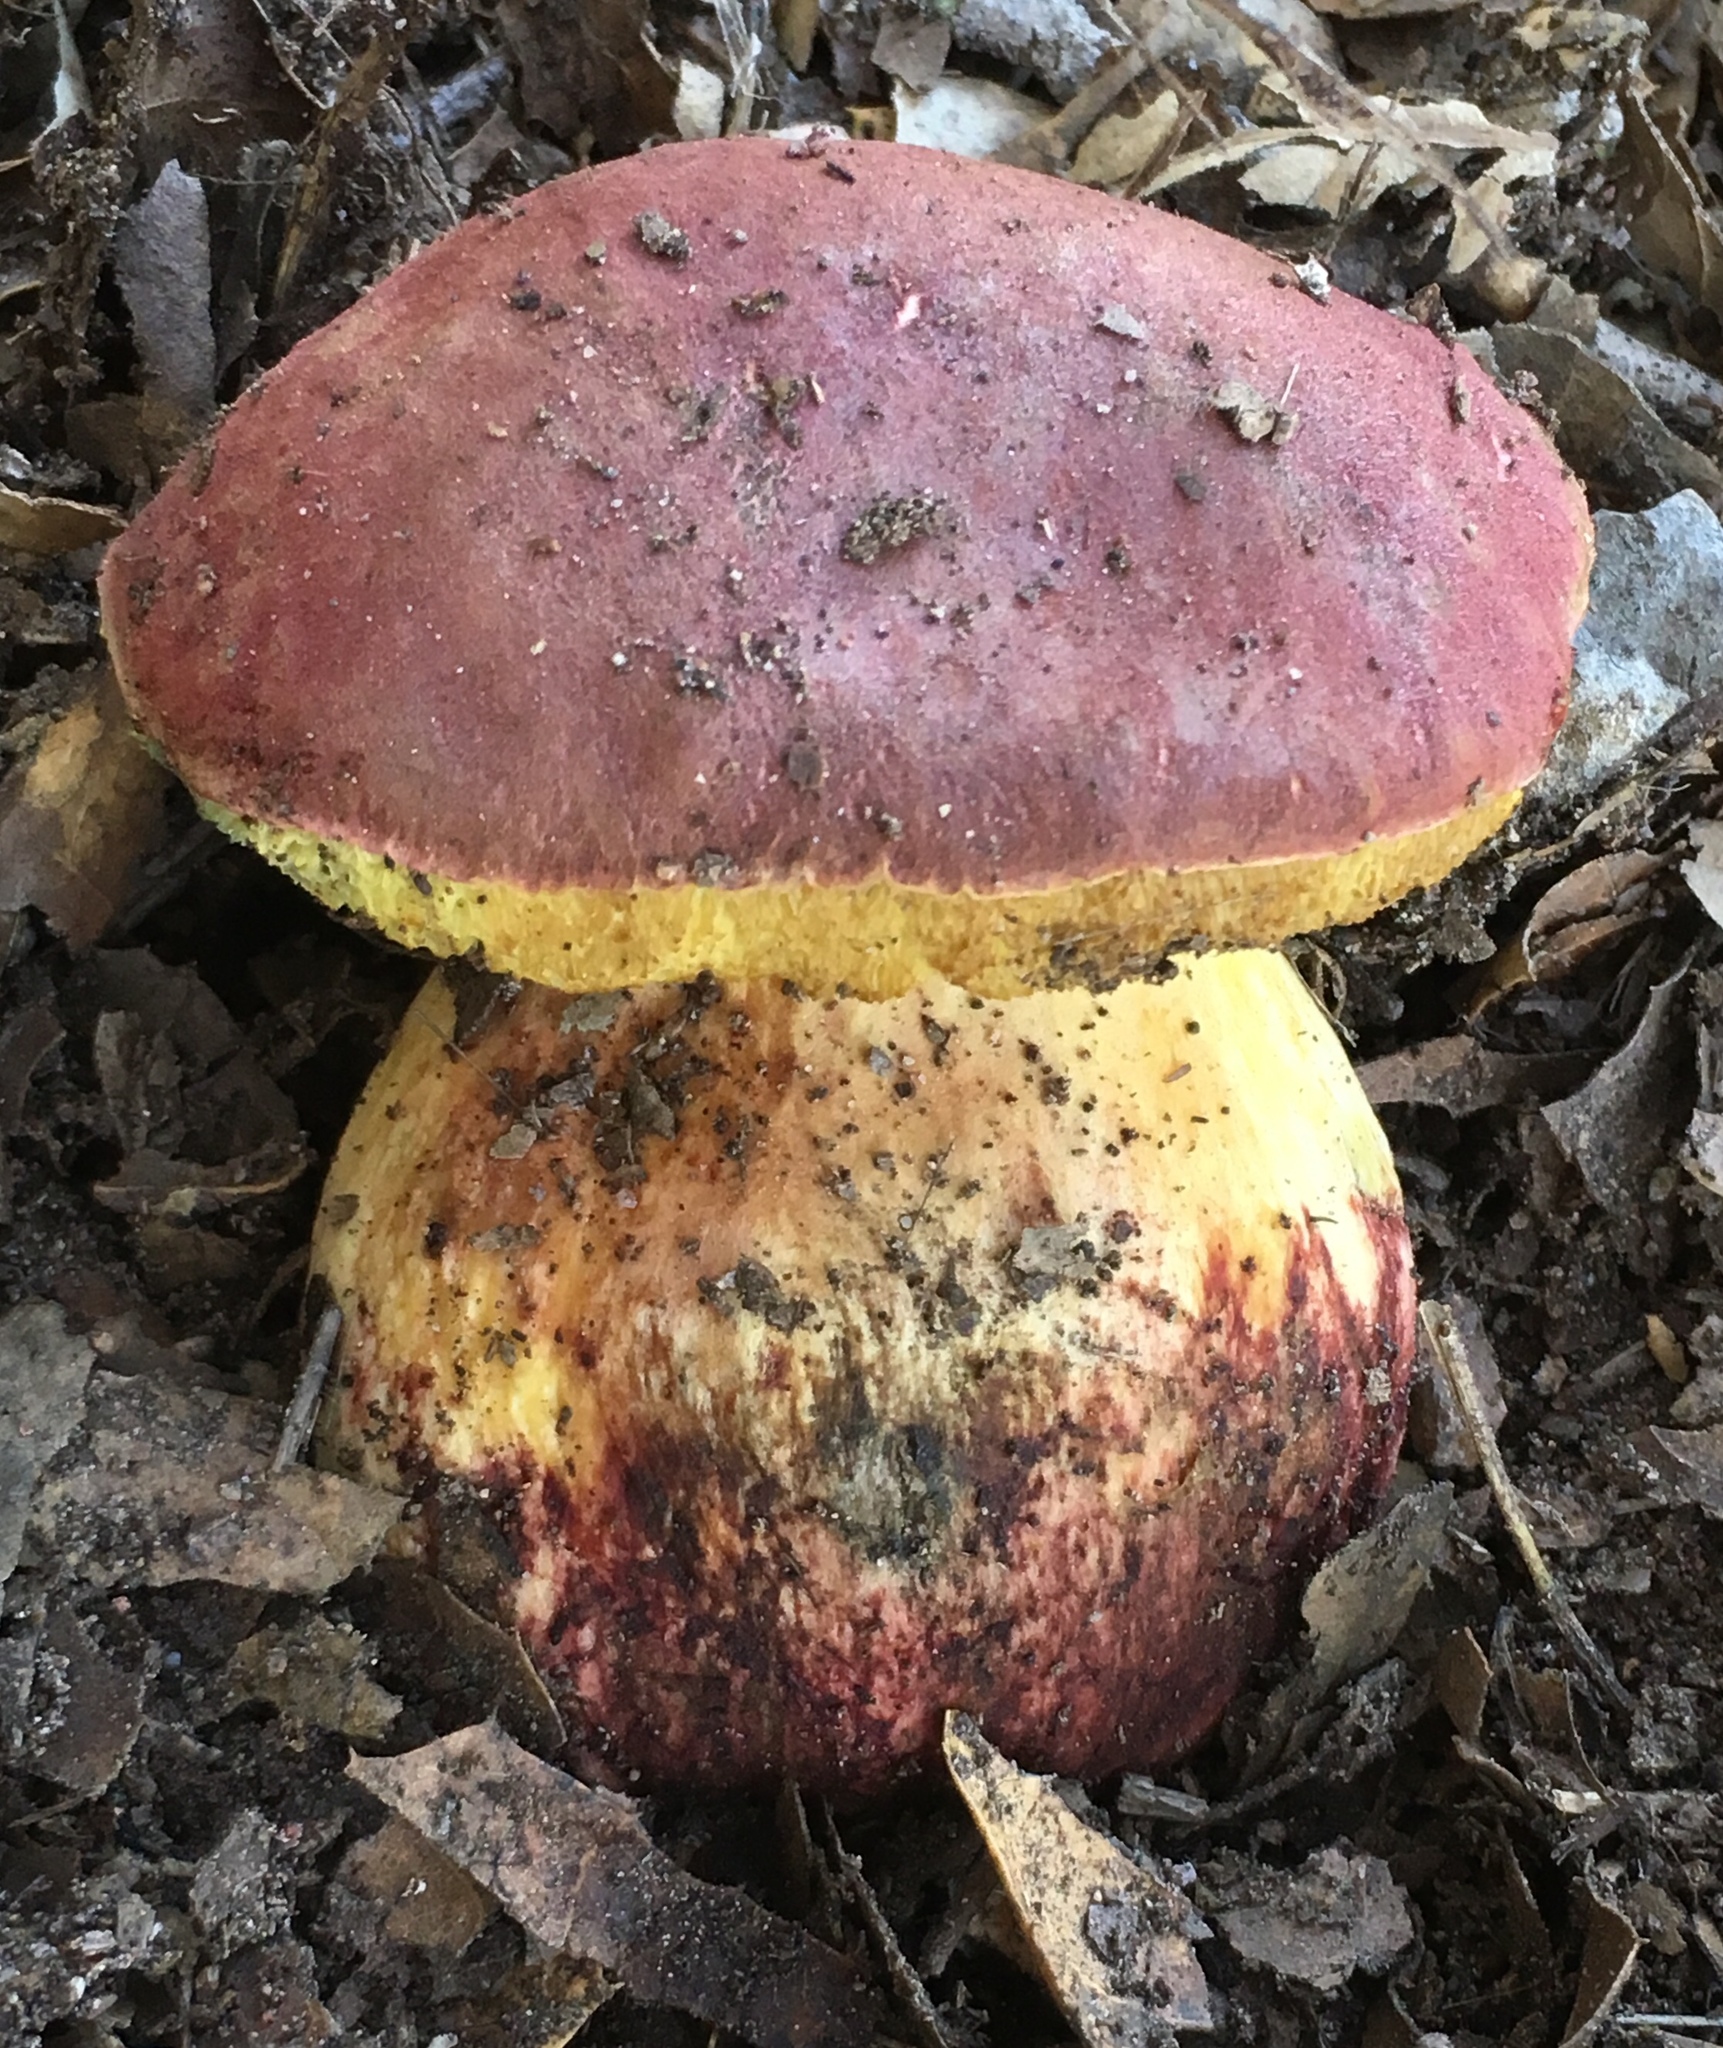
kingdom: Fungi
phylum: Basidiomycota
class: Agaricomycetes
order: Boletales
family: Boletaceae
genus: Xerocomellus
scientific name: Xerocomellus dryophilus
